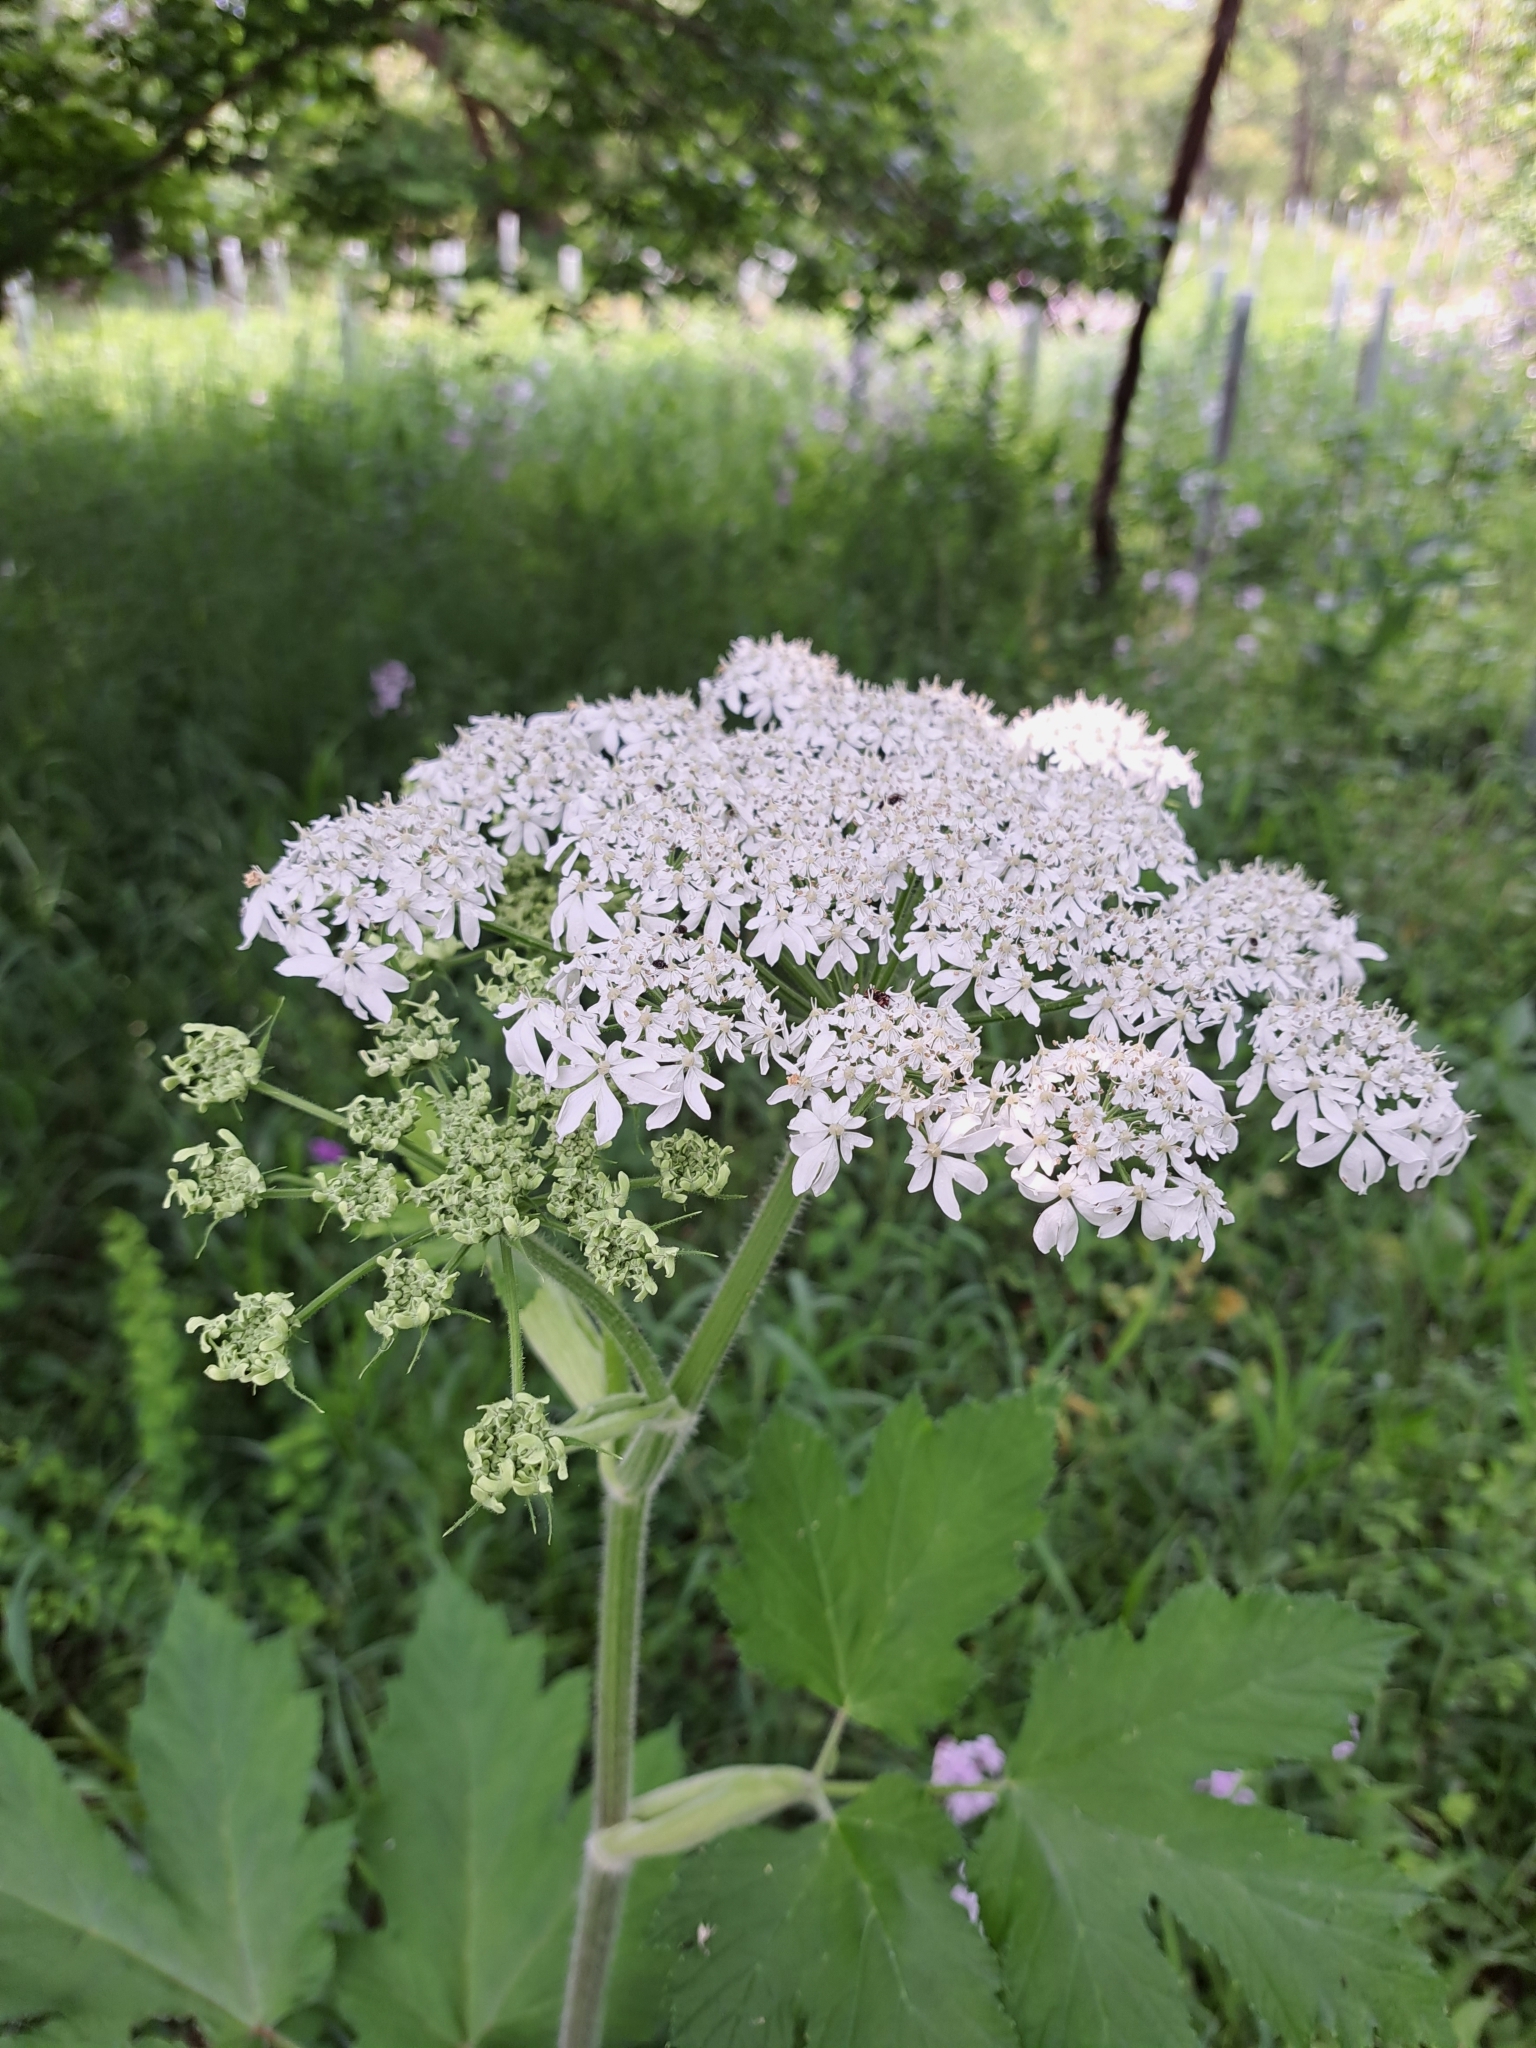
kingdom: Plantae
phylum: Tracheophyta
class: Magnoliopsida
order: Apiales
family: Apiaceae
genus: Heracleum
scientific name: Heracleum maximum
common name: American cow parsnip
